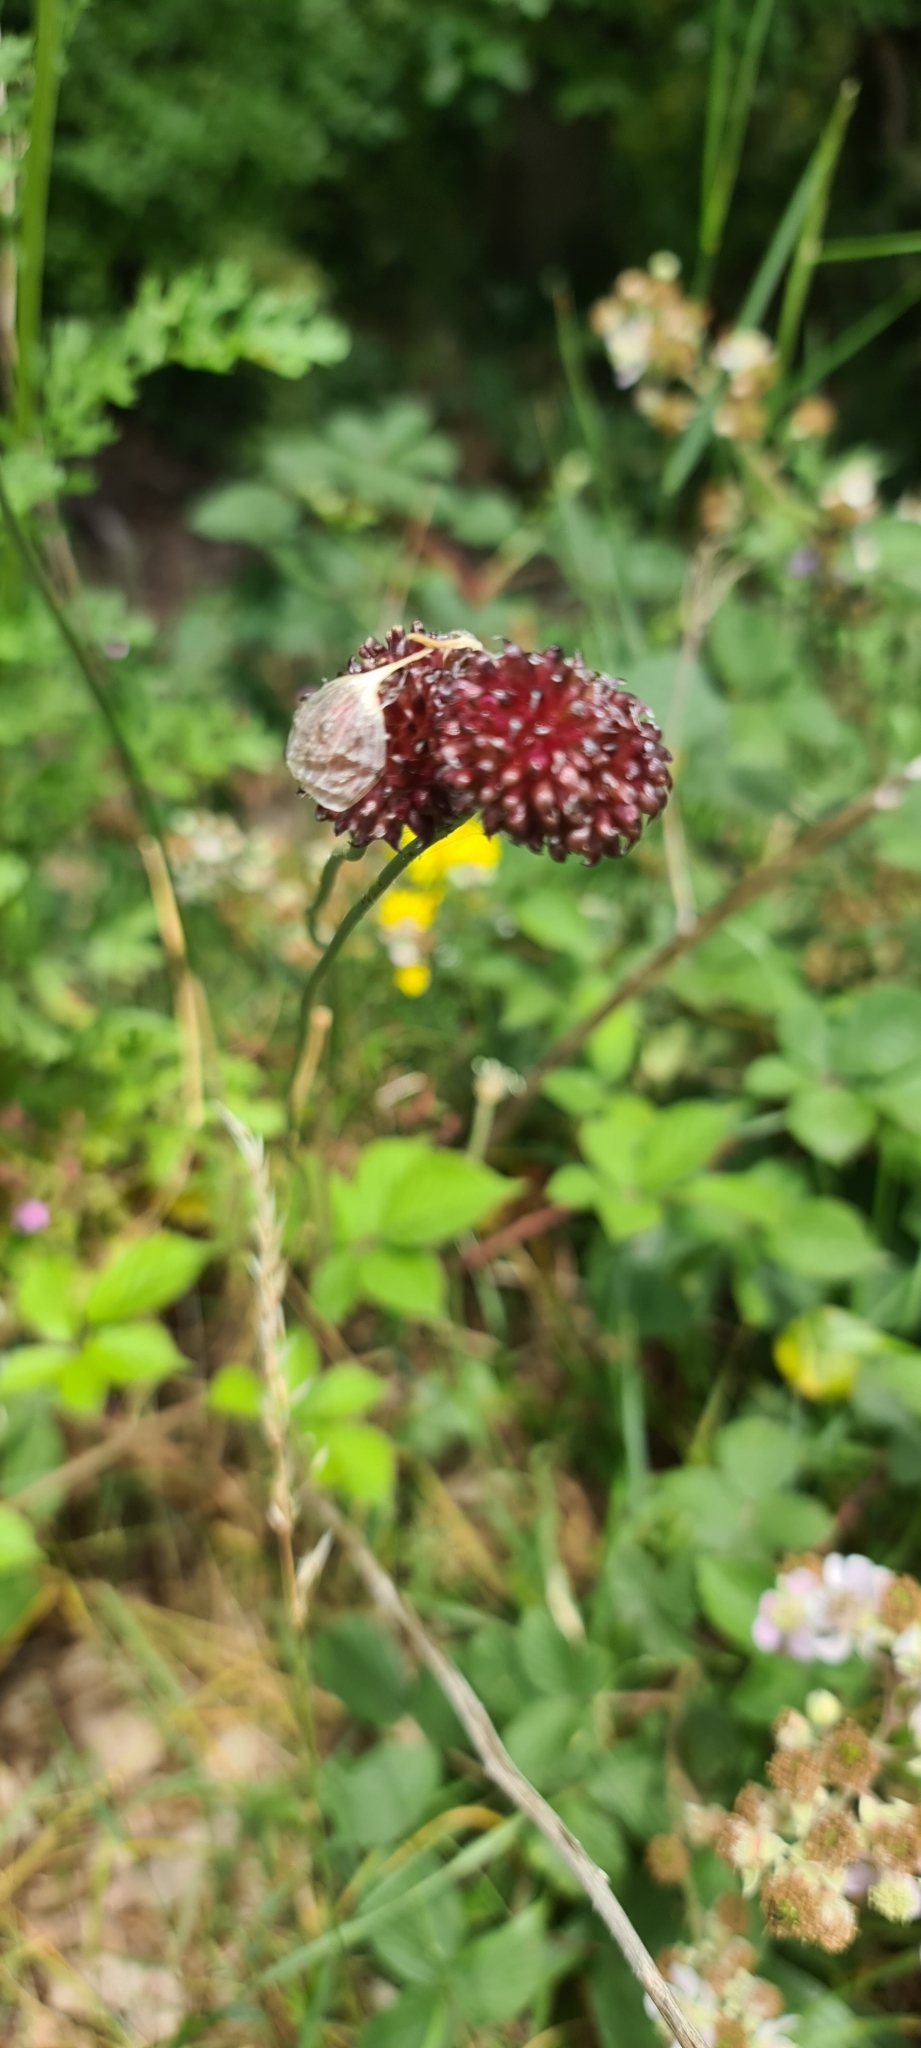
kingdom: Plantae
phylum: Tracheophyta
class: Liliopsida
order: Asparagales
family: Amaryllidaceae
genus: Allium
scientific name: Allium vineale
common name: Crow garlic
